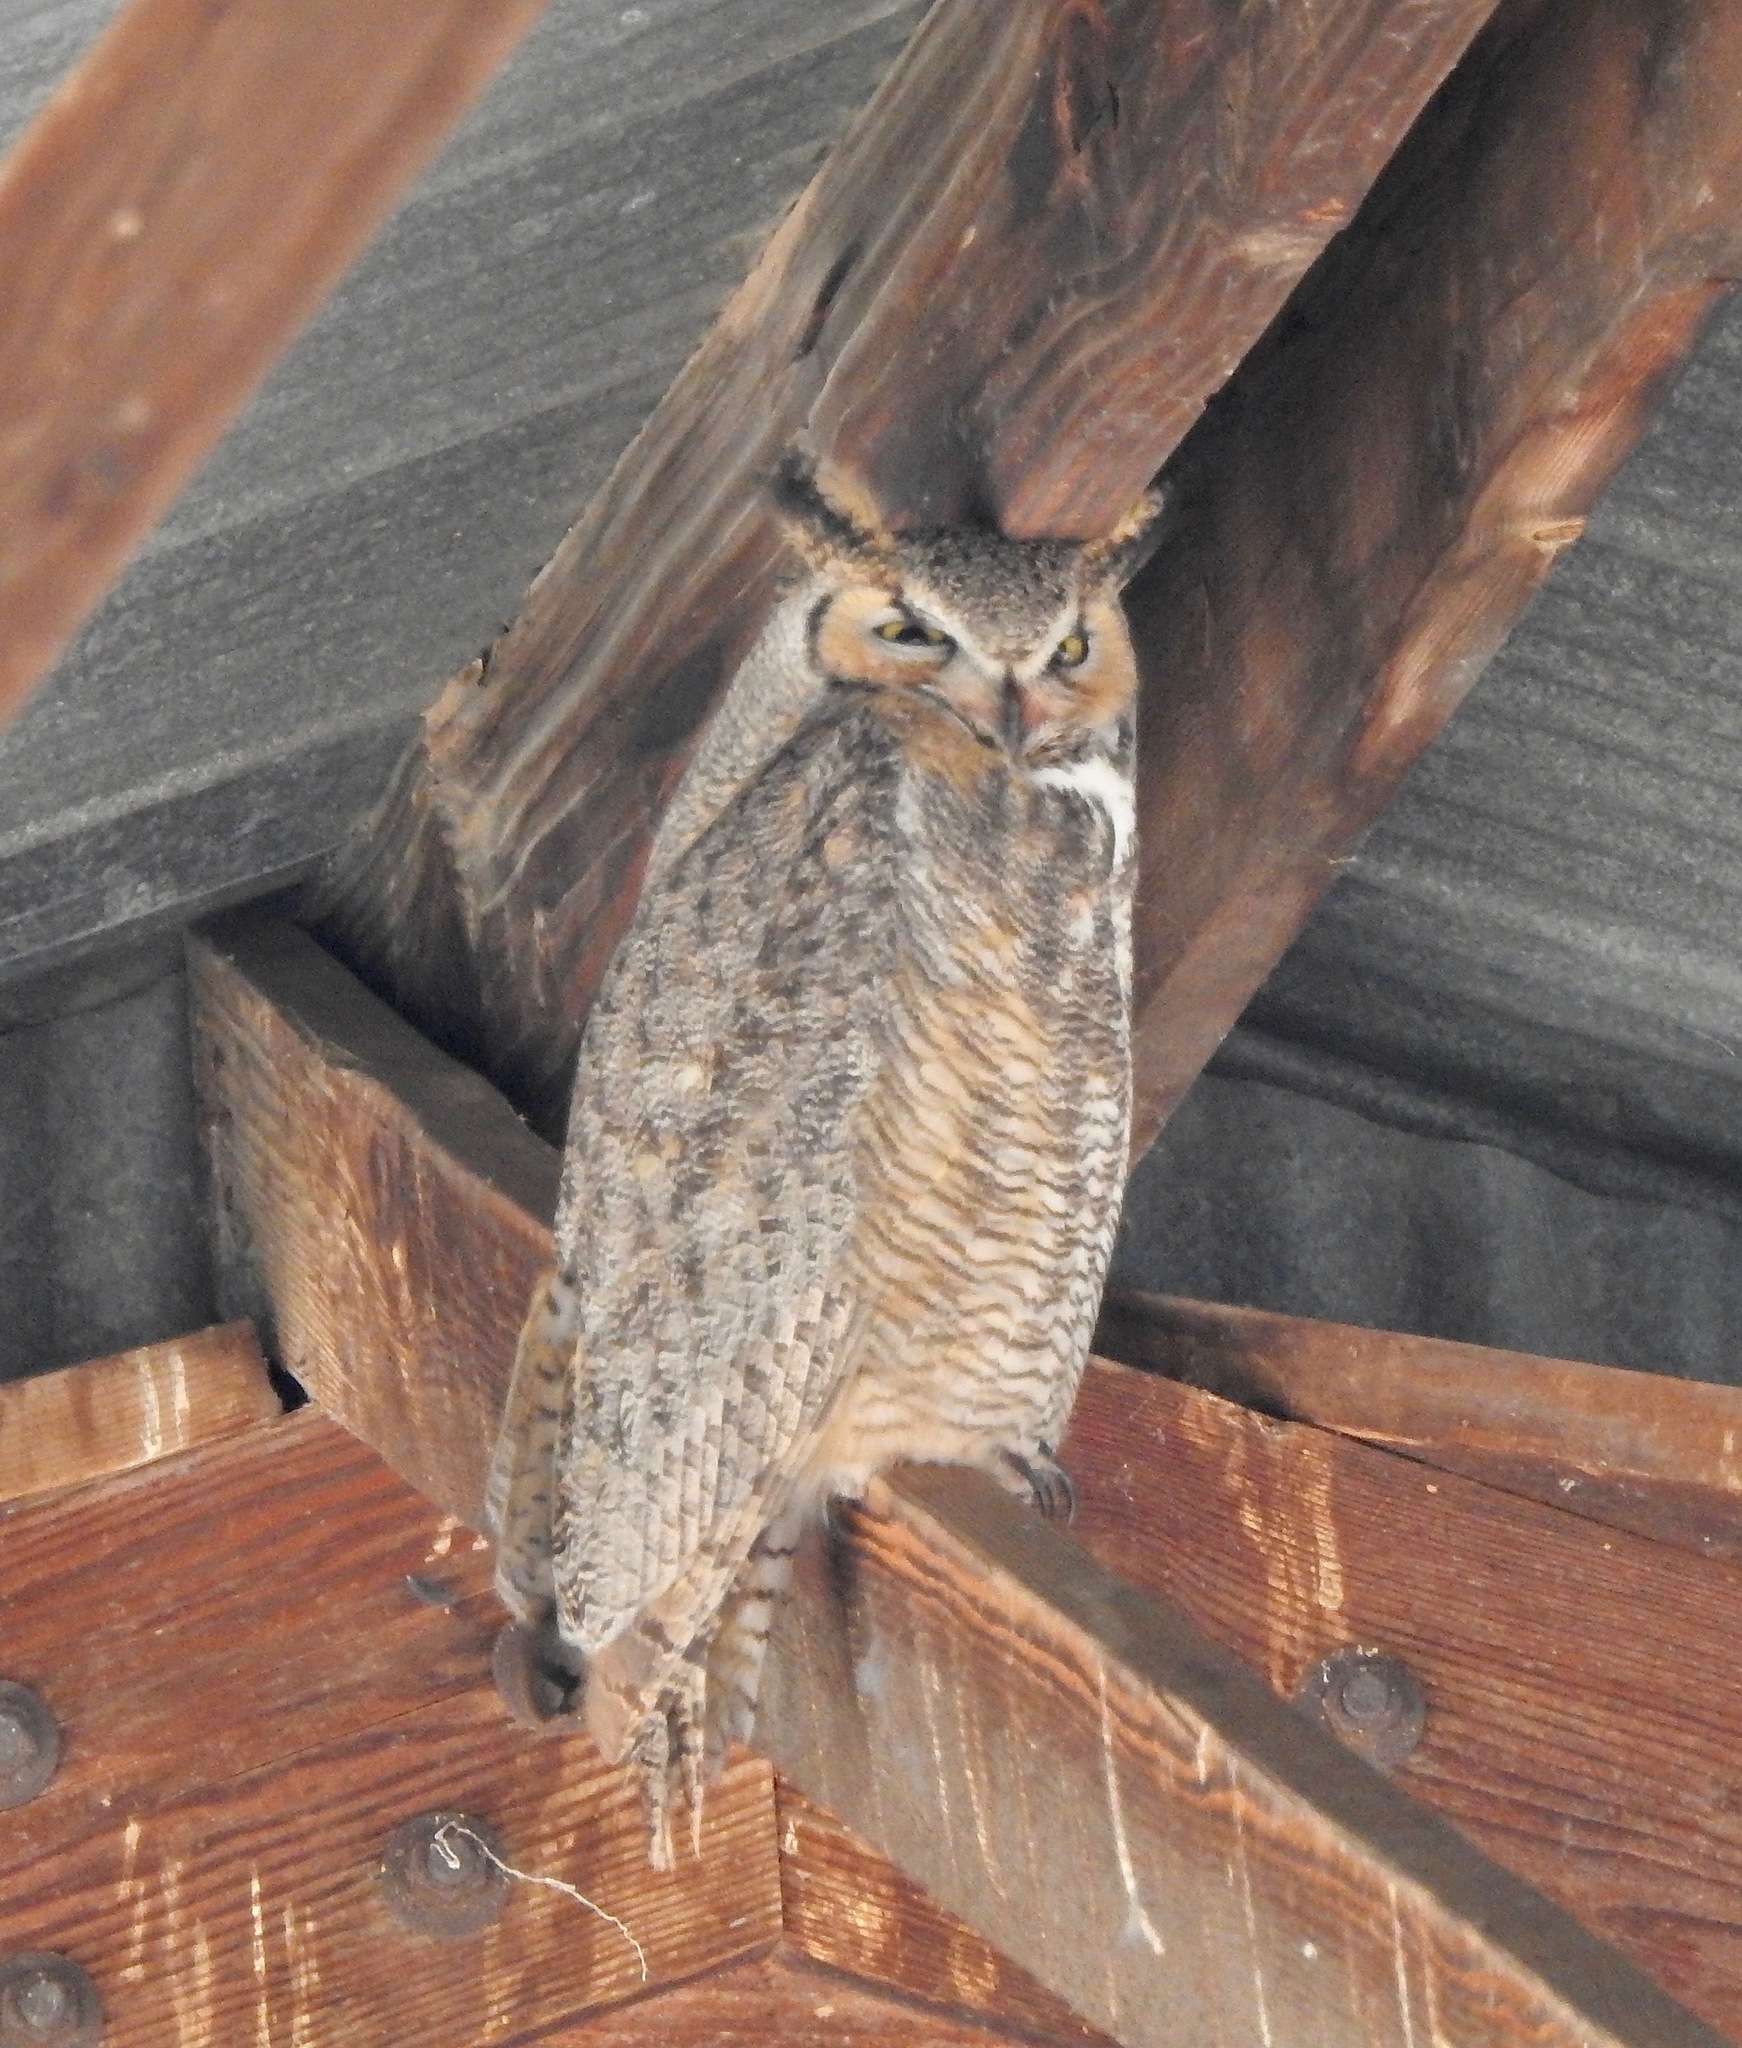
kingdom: Animalia
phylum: Chordata
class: Aves
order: Strigiformes
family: Strigidae
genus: Bubo
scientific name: Bubo virginianus
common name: Great horned owl
